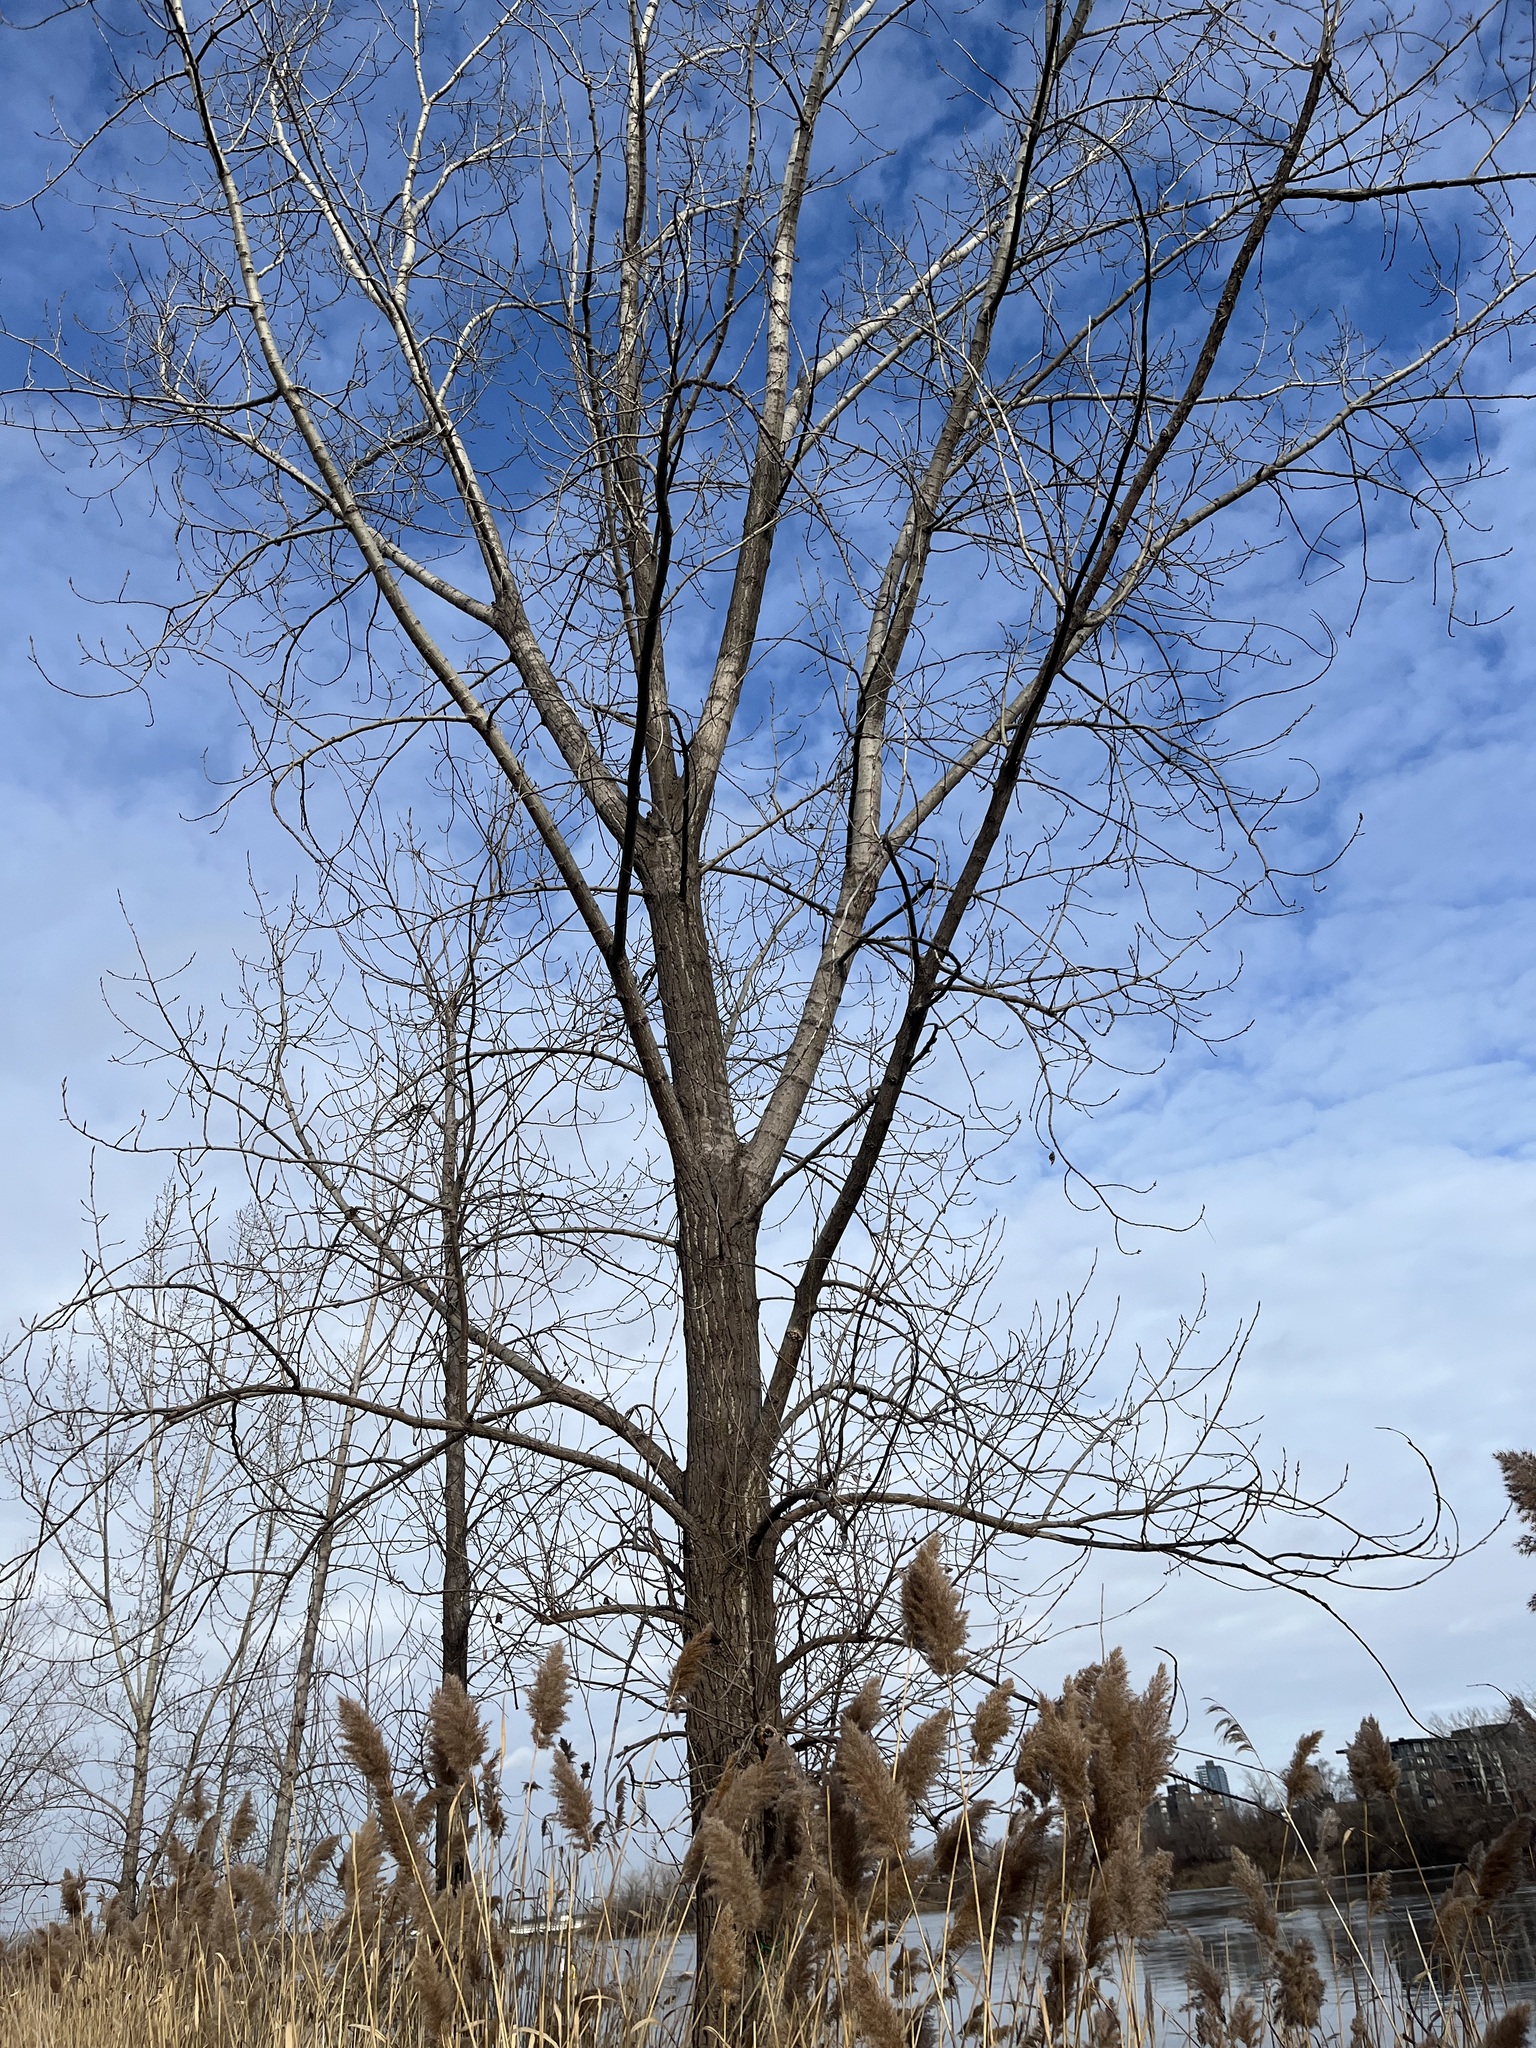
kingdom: Plantae
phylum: Tracheophyta
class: Magnoliopsida
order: Malpighiales
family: Salicaceae
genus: Populus
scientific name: Populus deltoides
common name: Eastern cottonwood
